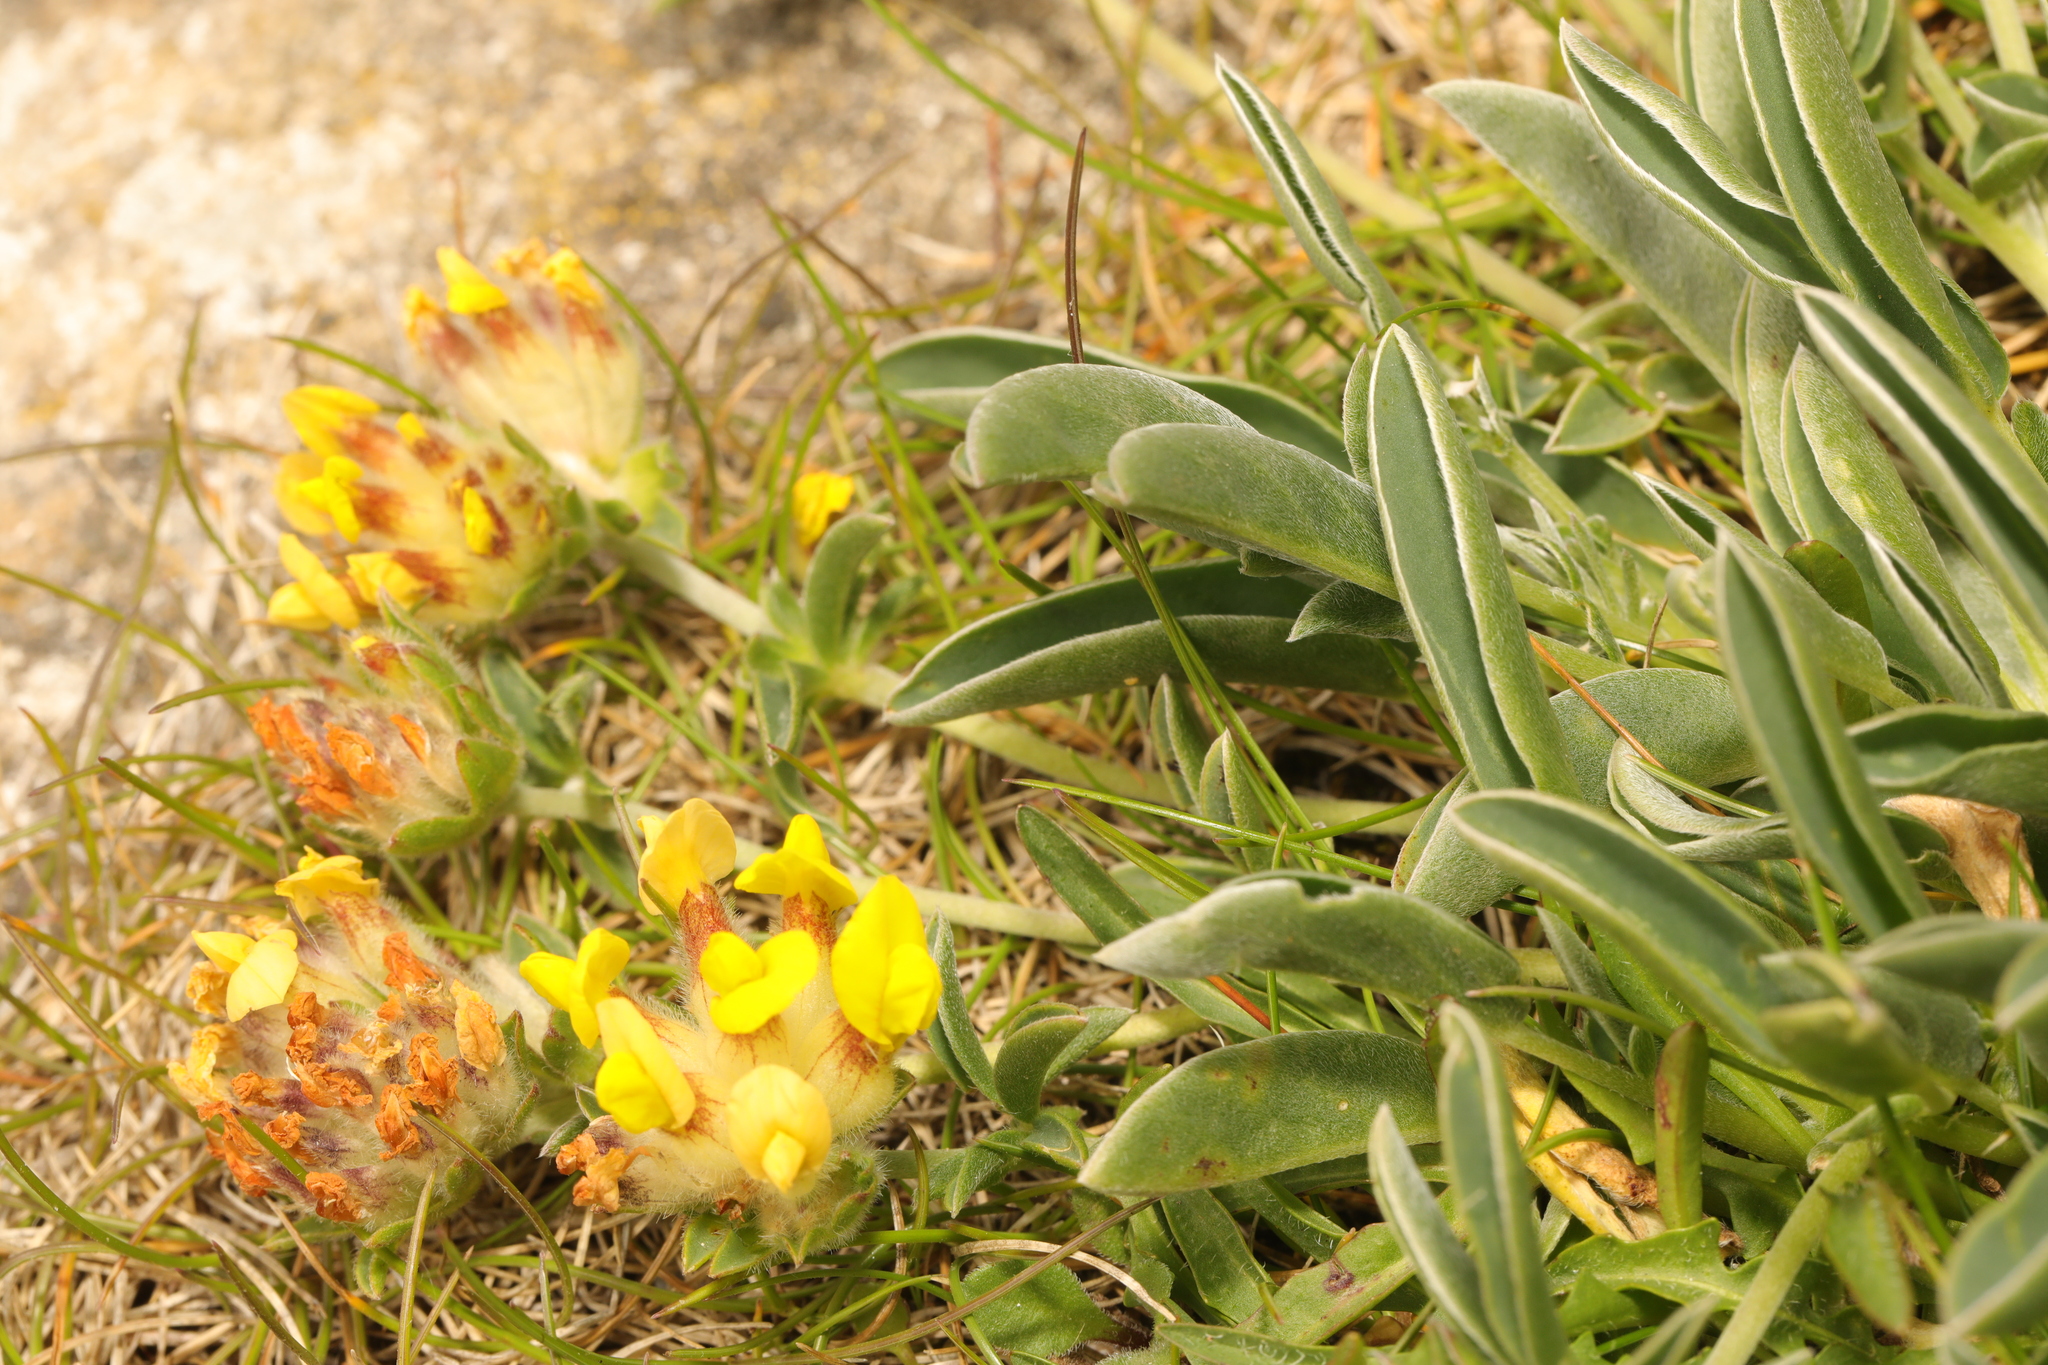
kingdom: Plantae
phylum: Tracheophyta
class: Magnoliopsida
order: Fabales
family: Fabaceae
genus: Anthyllis
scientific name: Anthyllis vulneraria
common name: Kidney vetch
